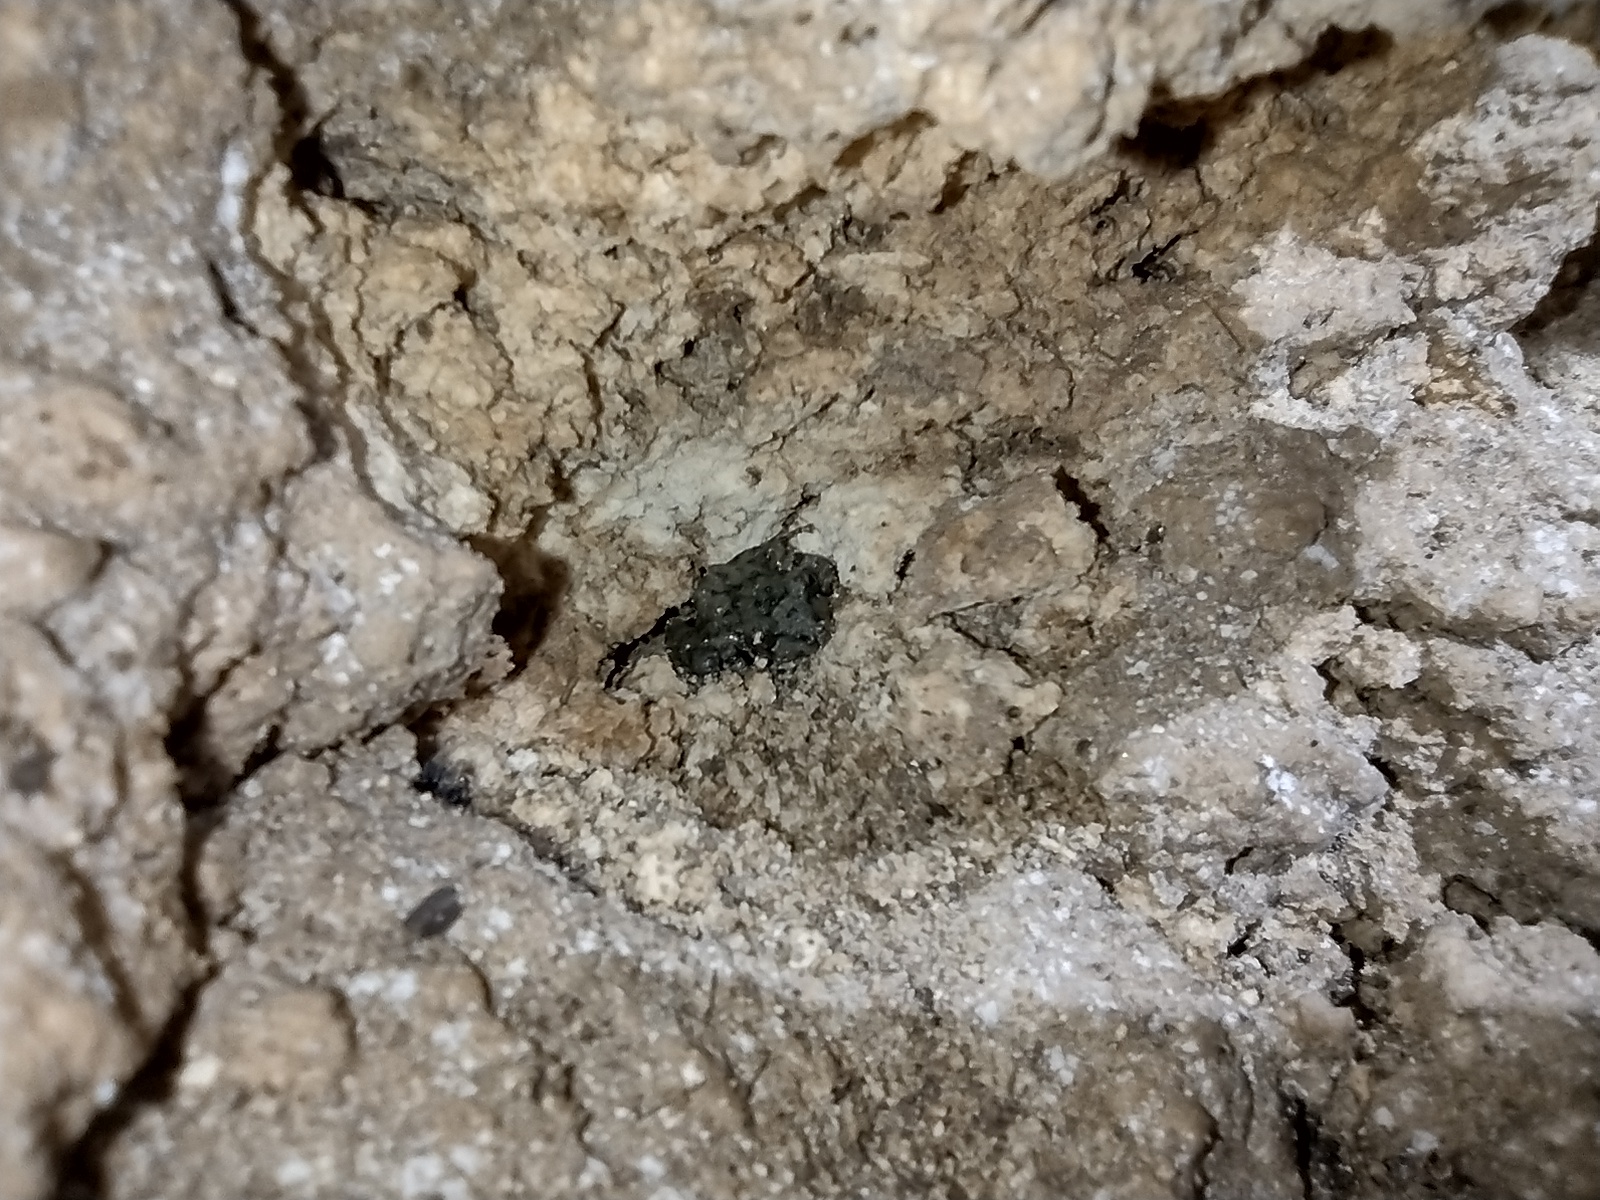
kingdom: Animalia
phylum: Chordata
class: Amphibia
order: Anura
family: Craugastoridae
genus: Craugastor
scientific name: Craugastor yucatanensis
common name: Yucatan rainfrog
